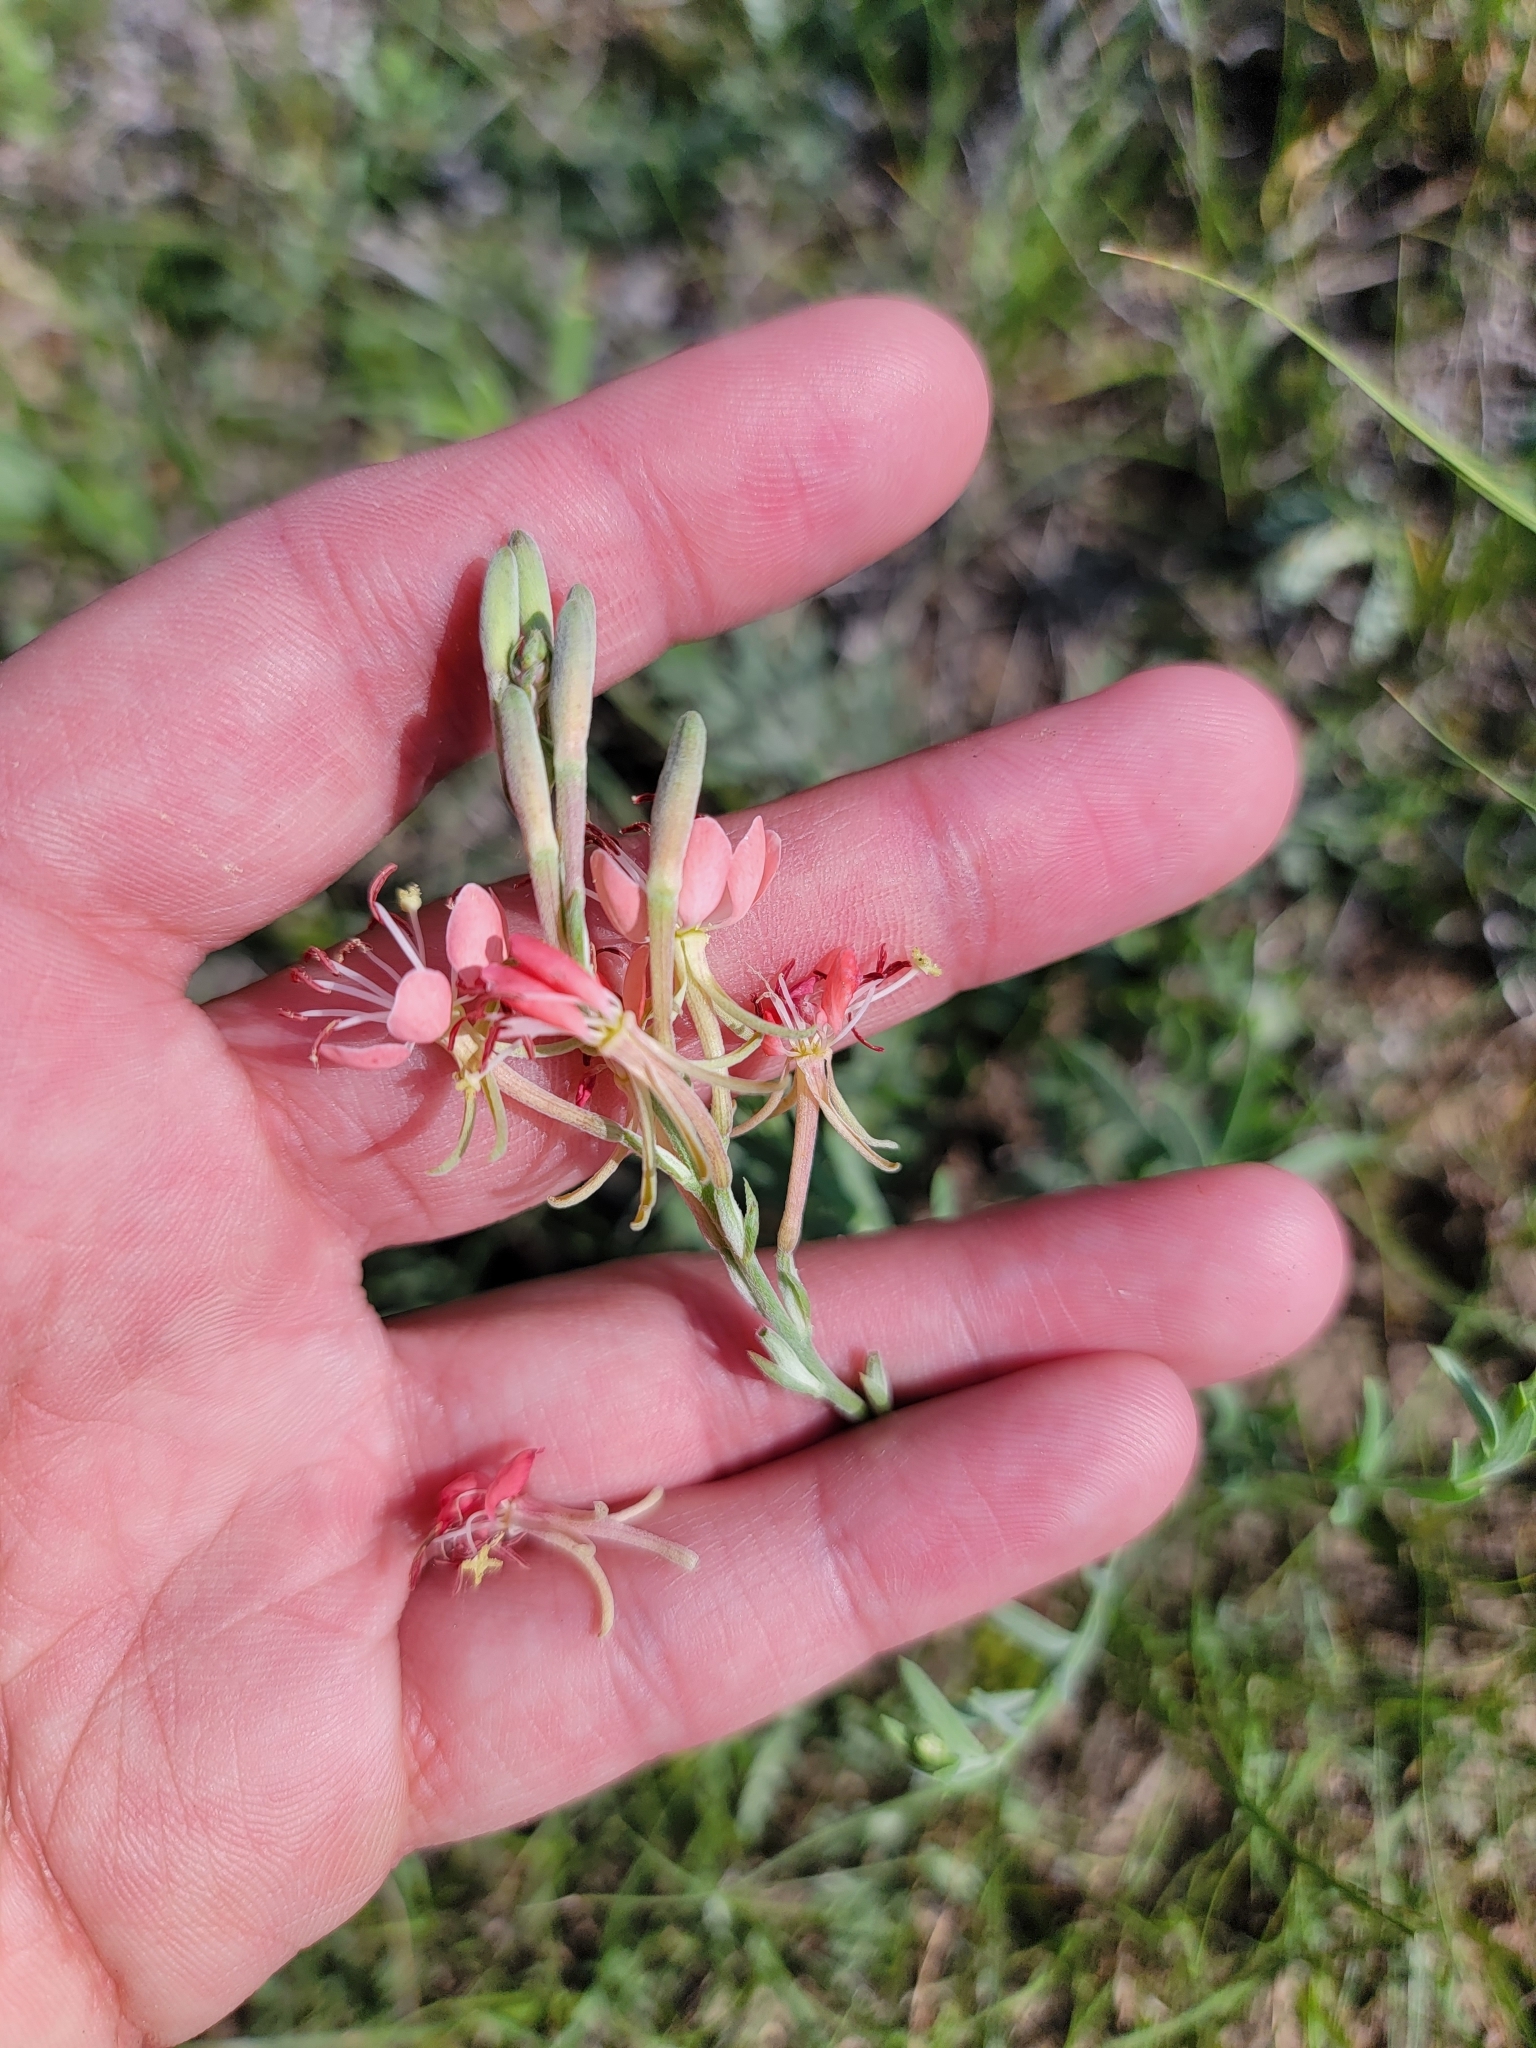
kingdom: Plantae
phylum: Tracheophyta
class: Magnoliopsida
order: Myrtales
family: Onagraceae
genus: Oenothera
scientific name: Oenothera suffrutescens
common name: Scarlet beeblossom
